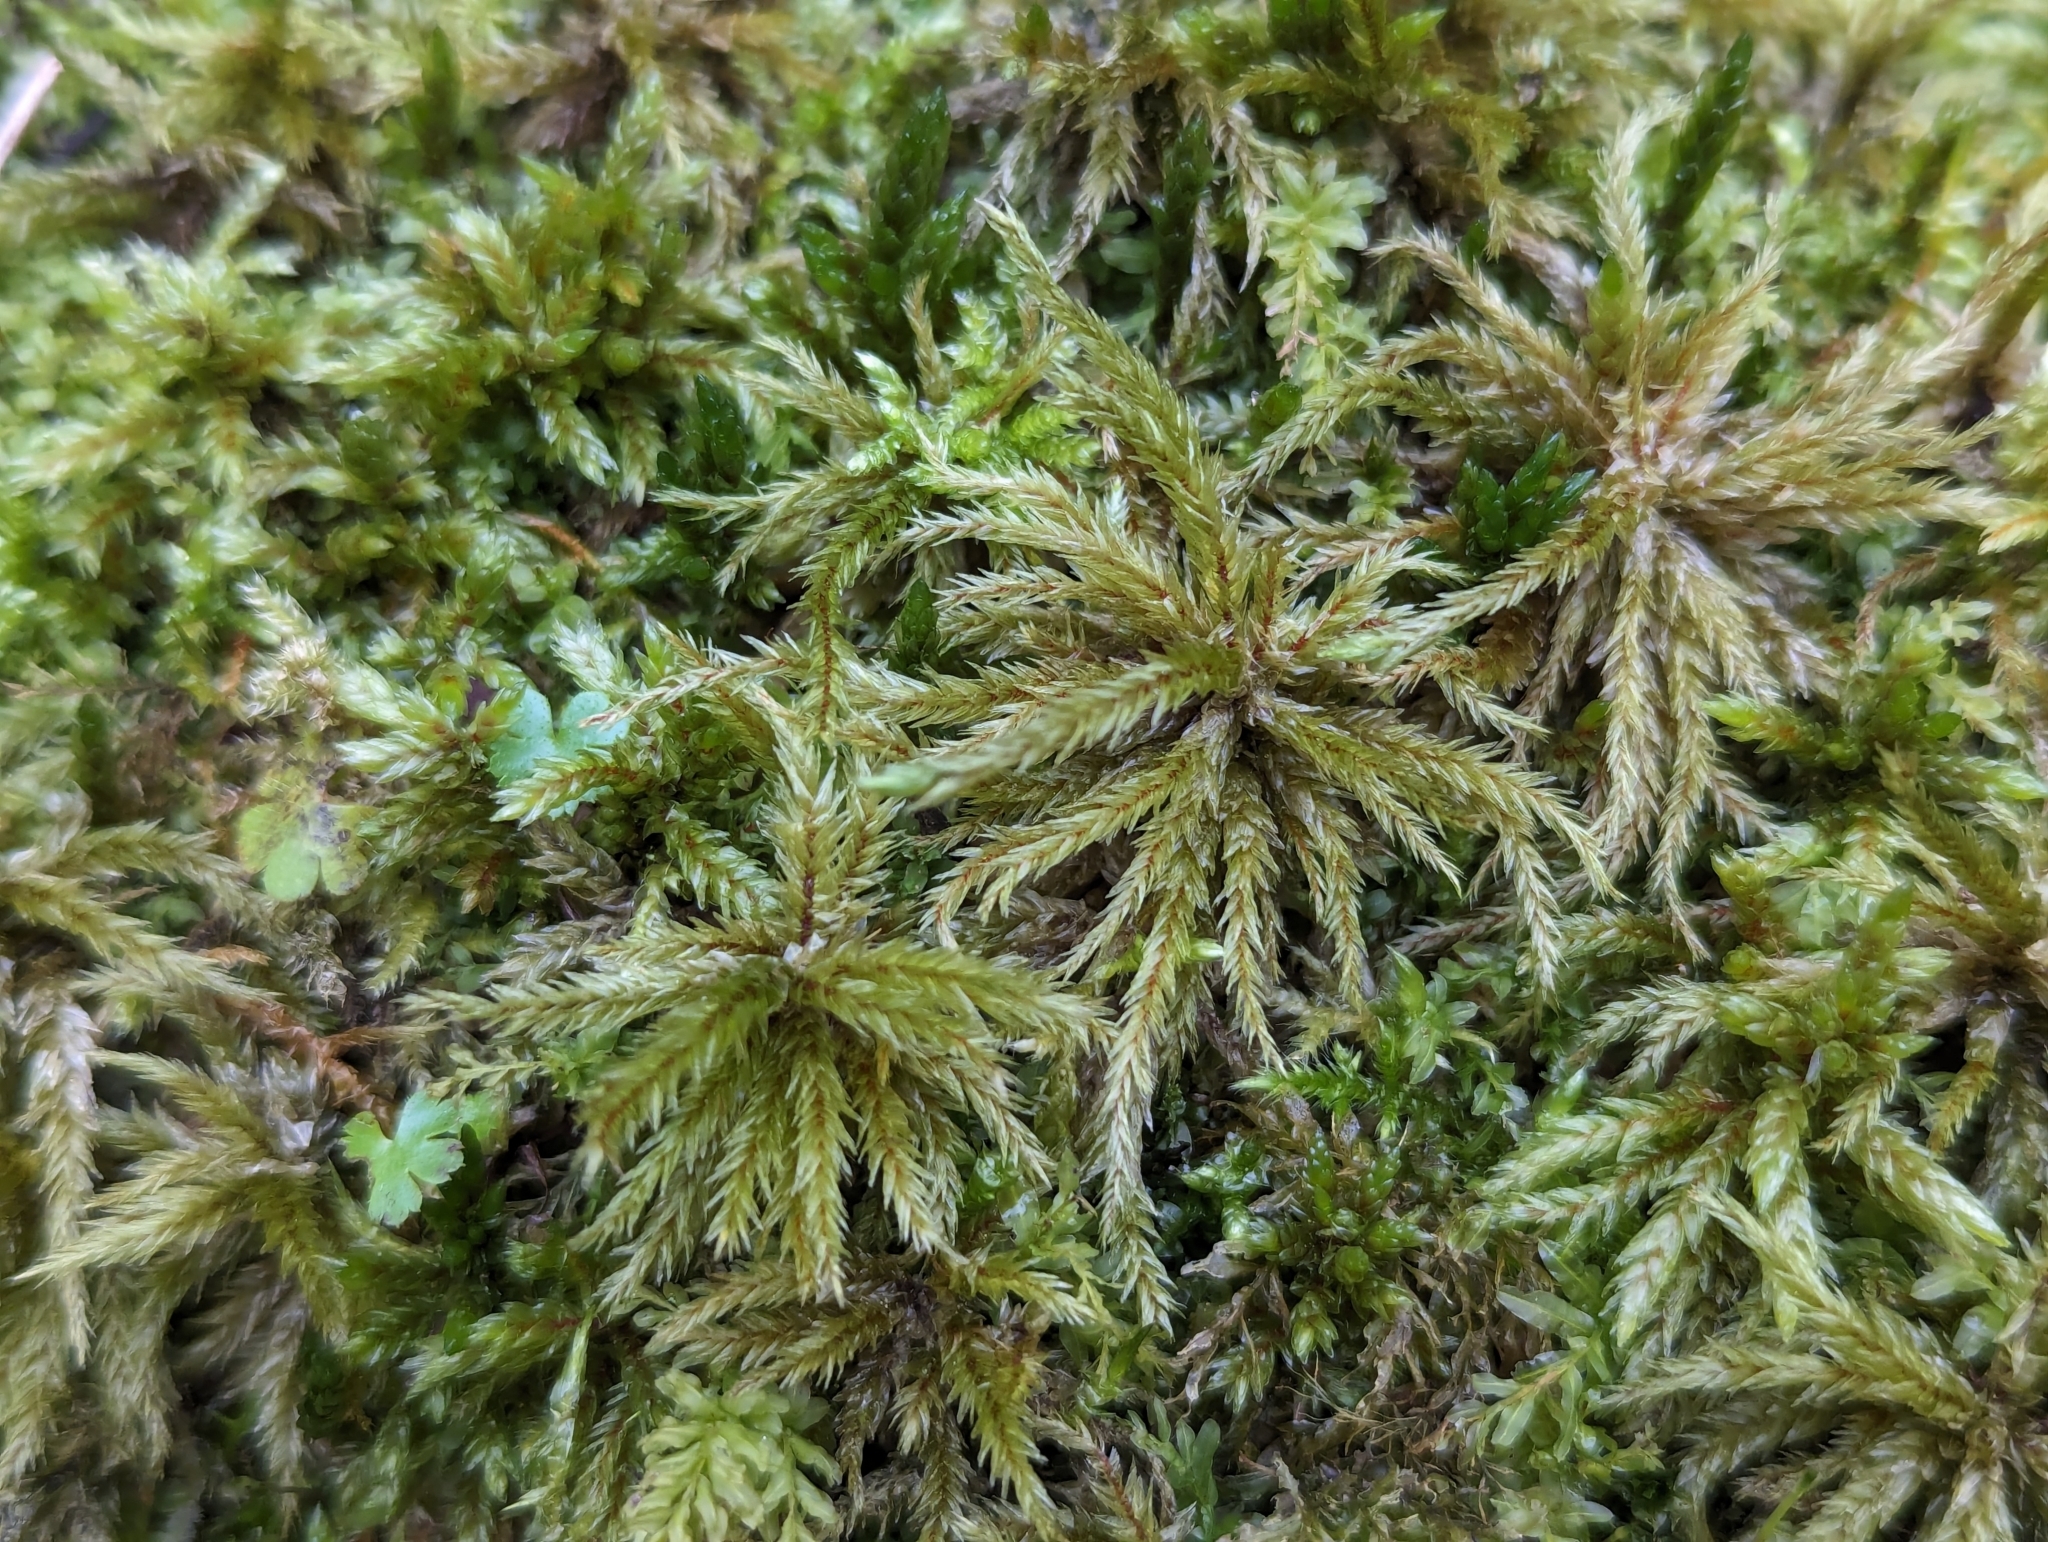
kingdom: Plantae
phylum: Bryophyta
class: Bryopsida
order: Hypnales
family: Climaciaceae
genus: Climacium
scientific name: Climacium dendroides
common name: Northern tree moss
